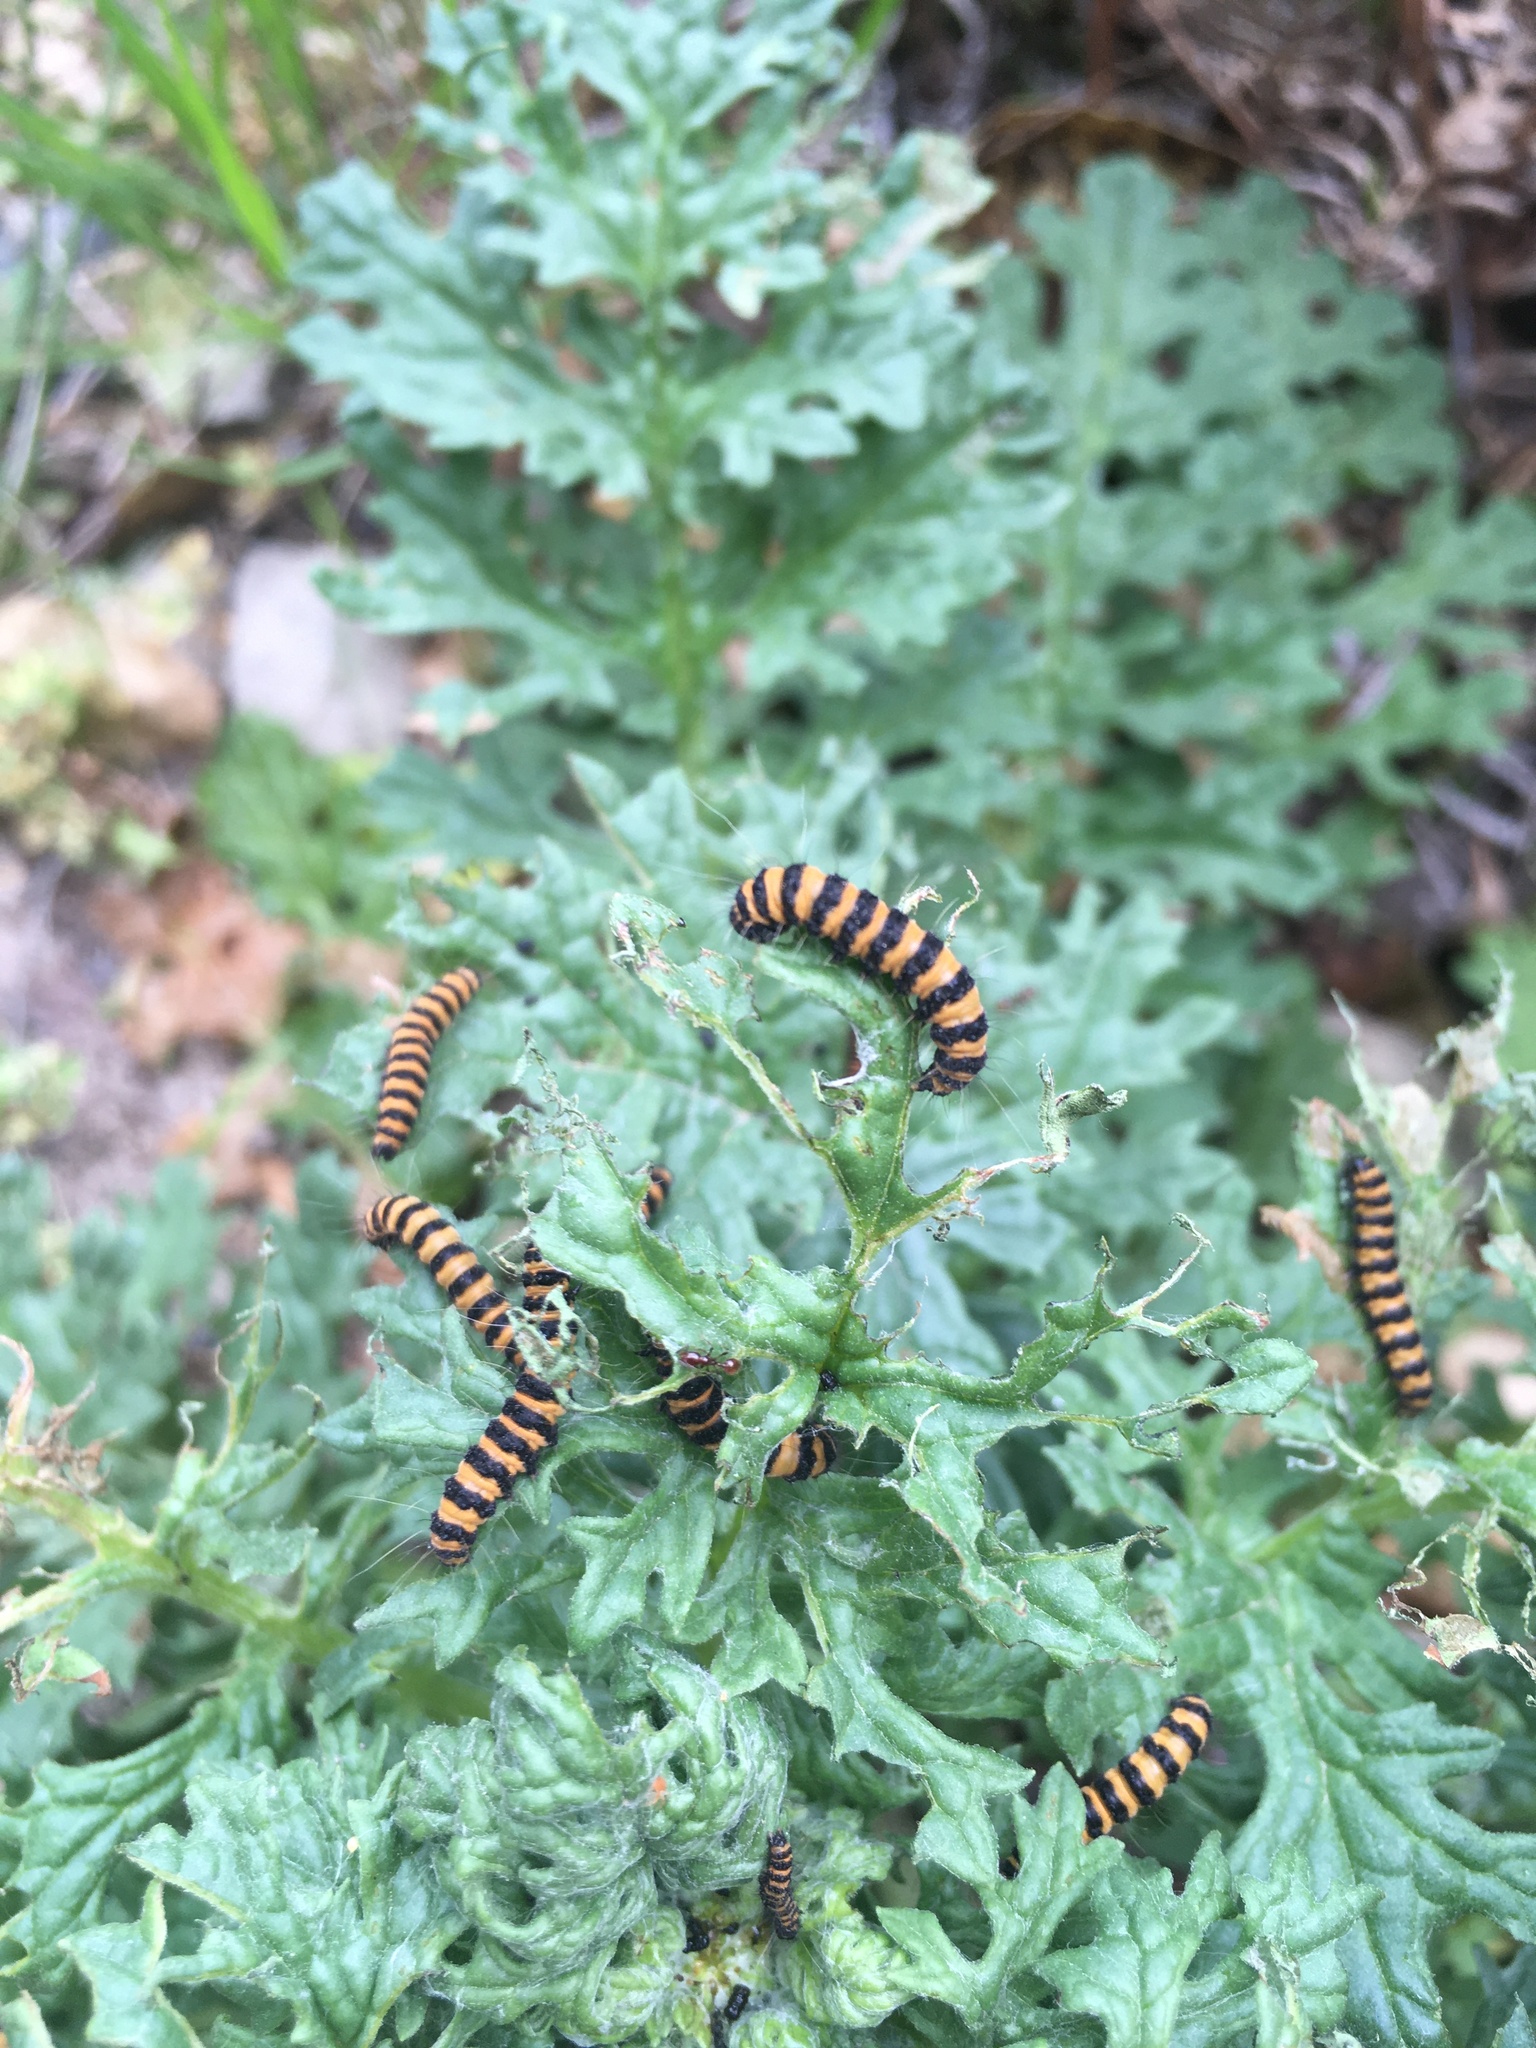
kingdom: Animalia
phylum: Arthropoda
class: Insecta
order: Lepidoptera
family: Erebidae
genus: Tyria
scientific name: Tyria jacobaeae
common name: Cinnabar
